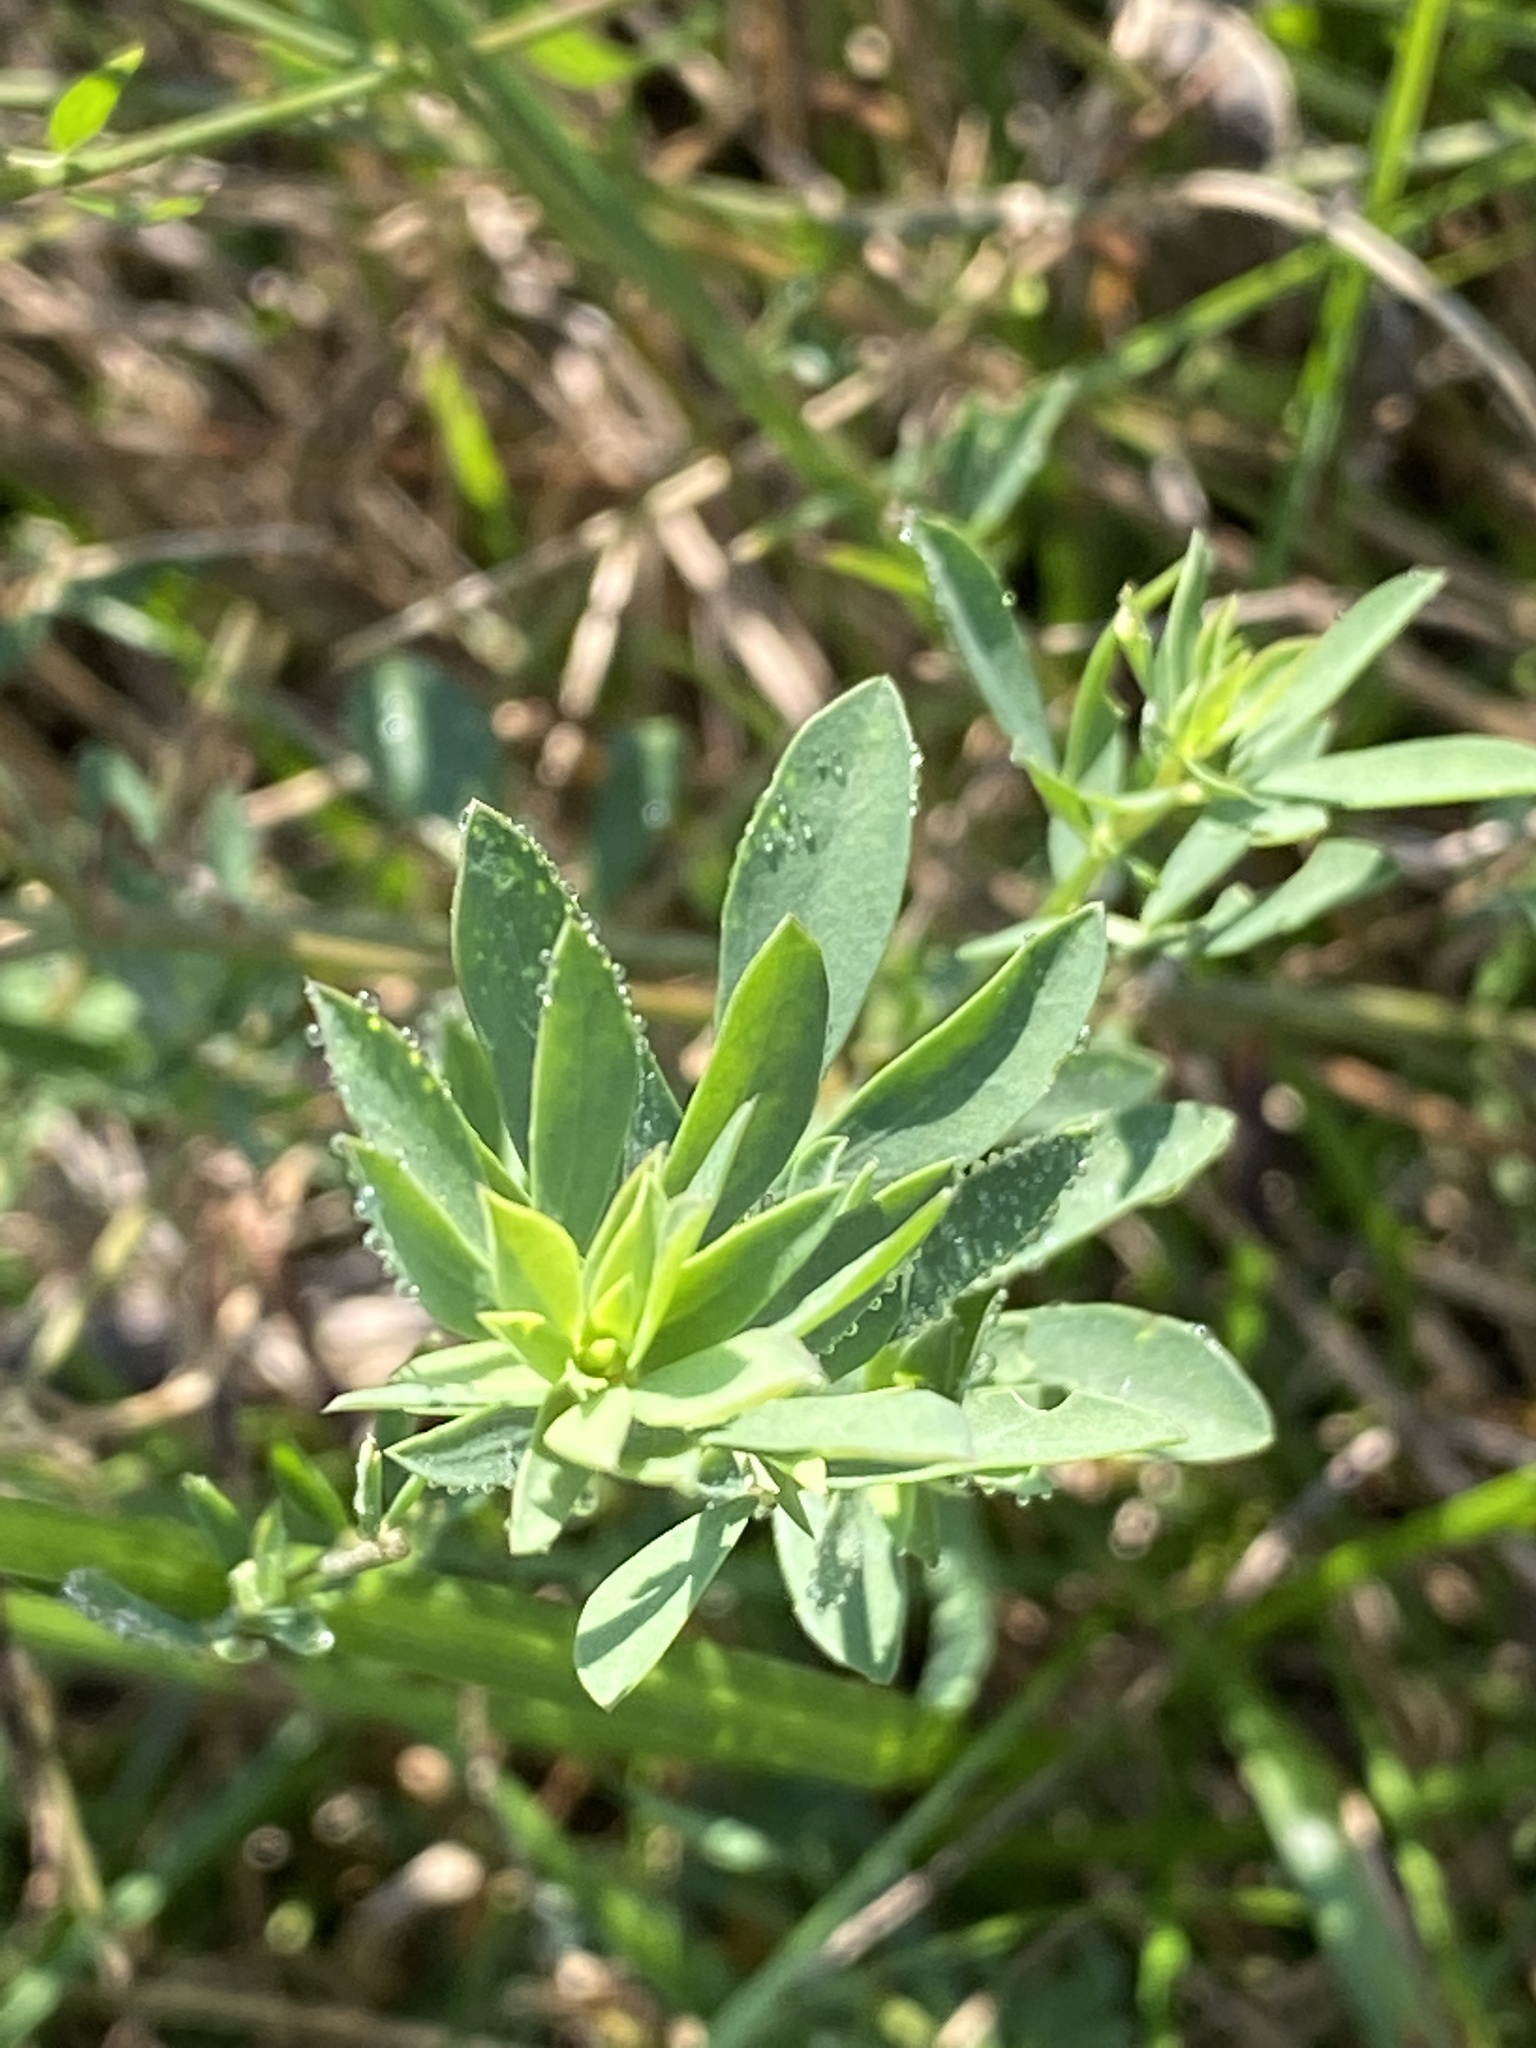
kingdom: Plantae
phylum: Tracheophyta
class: Magnoliopsida
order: Fabales
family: Fabaceae
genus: Lotus
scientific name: Lotus corniculatus
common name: Common bird's-foot-trefoil
